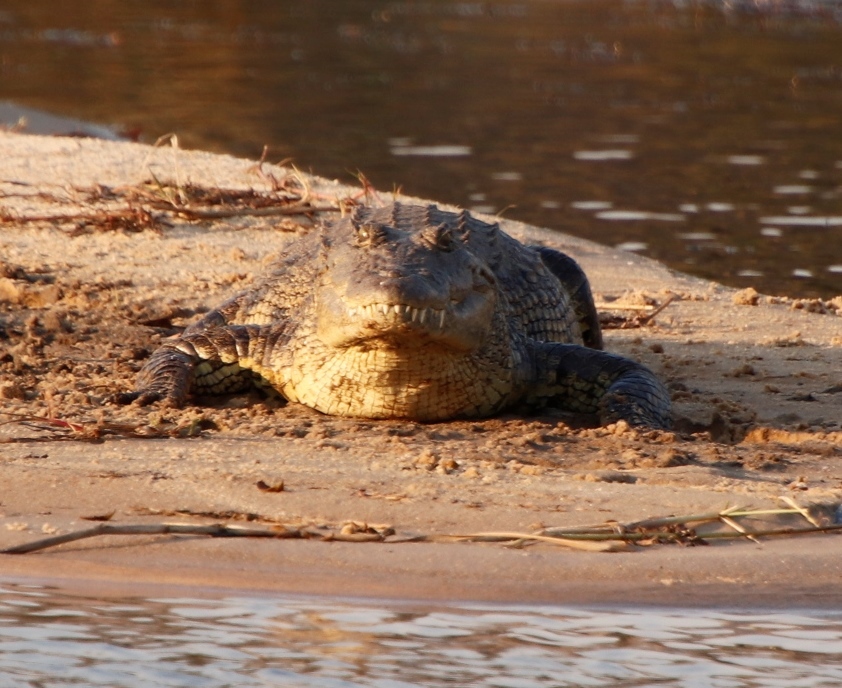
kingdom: Animalia
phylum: Chordata
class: Crocodylia
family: Crocodylidae
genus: Crocodylus
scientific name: Crocodylus niloticus
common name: Nile crocodile
